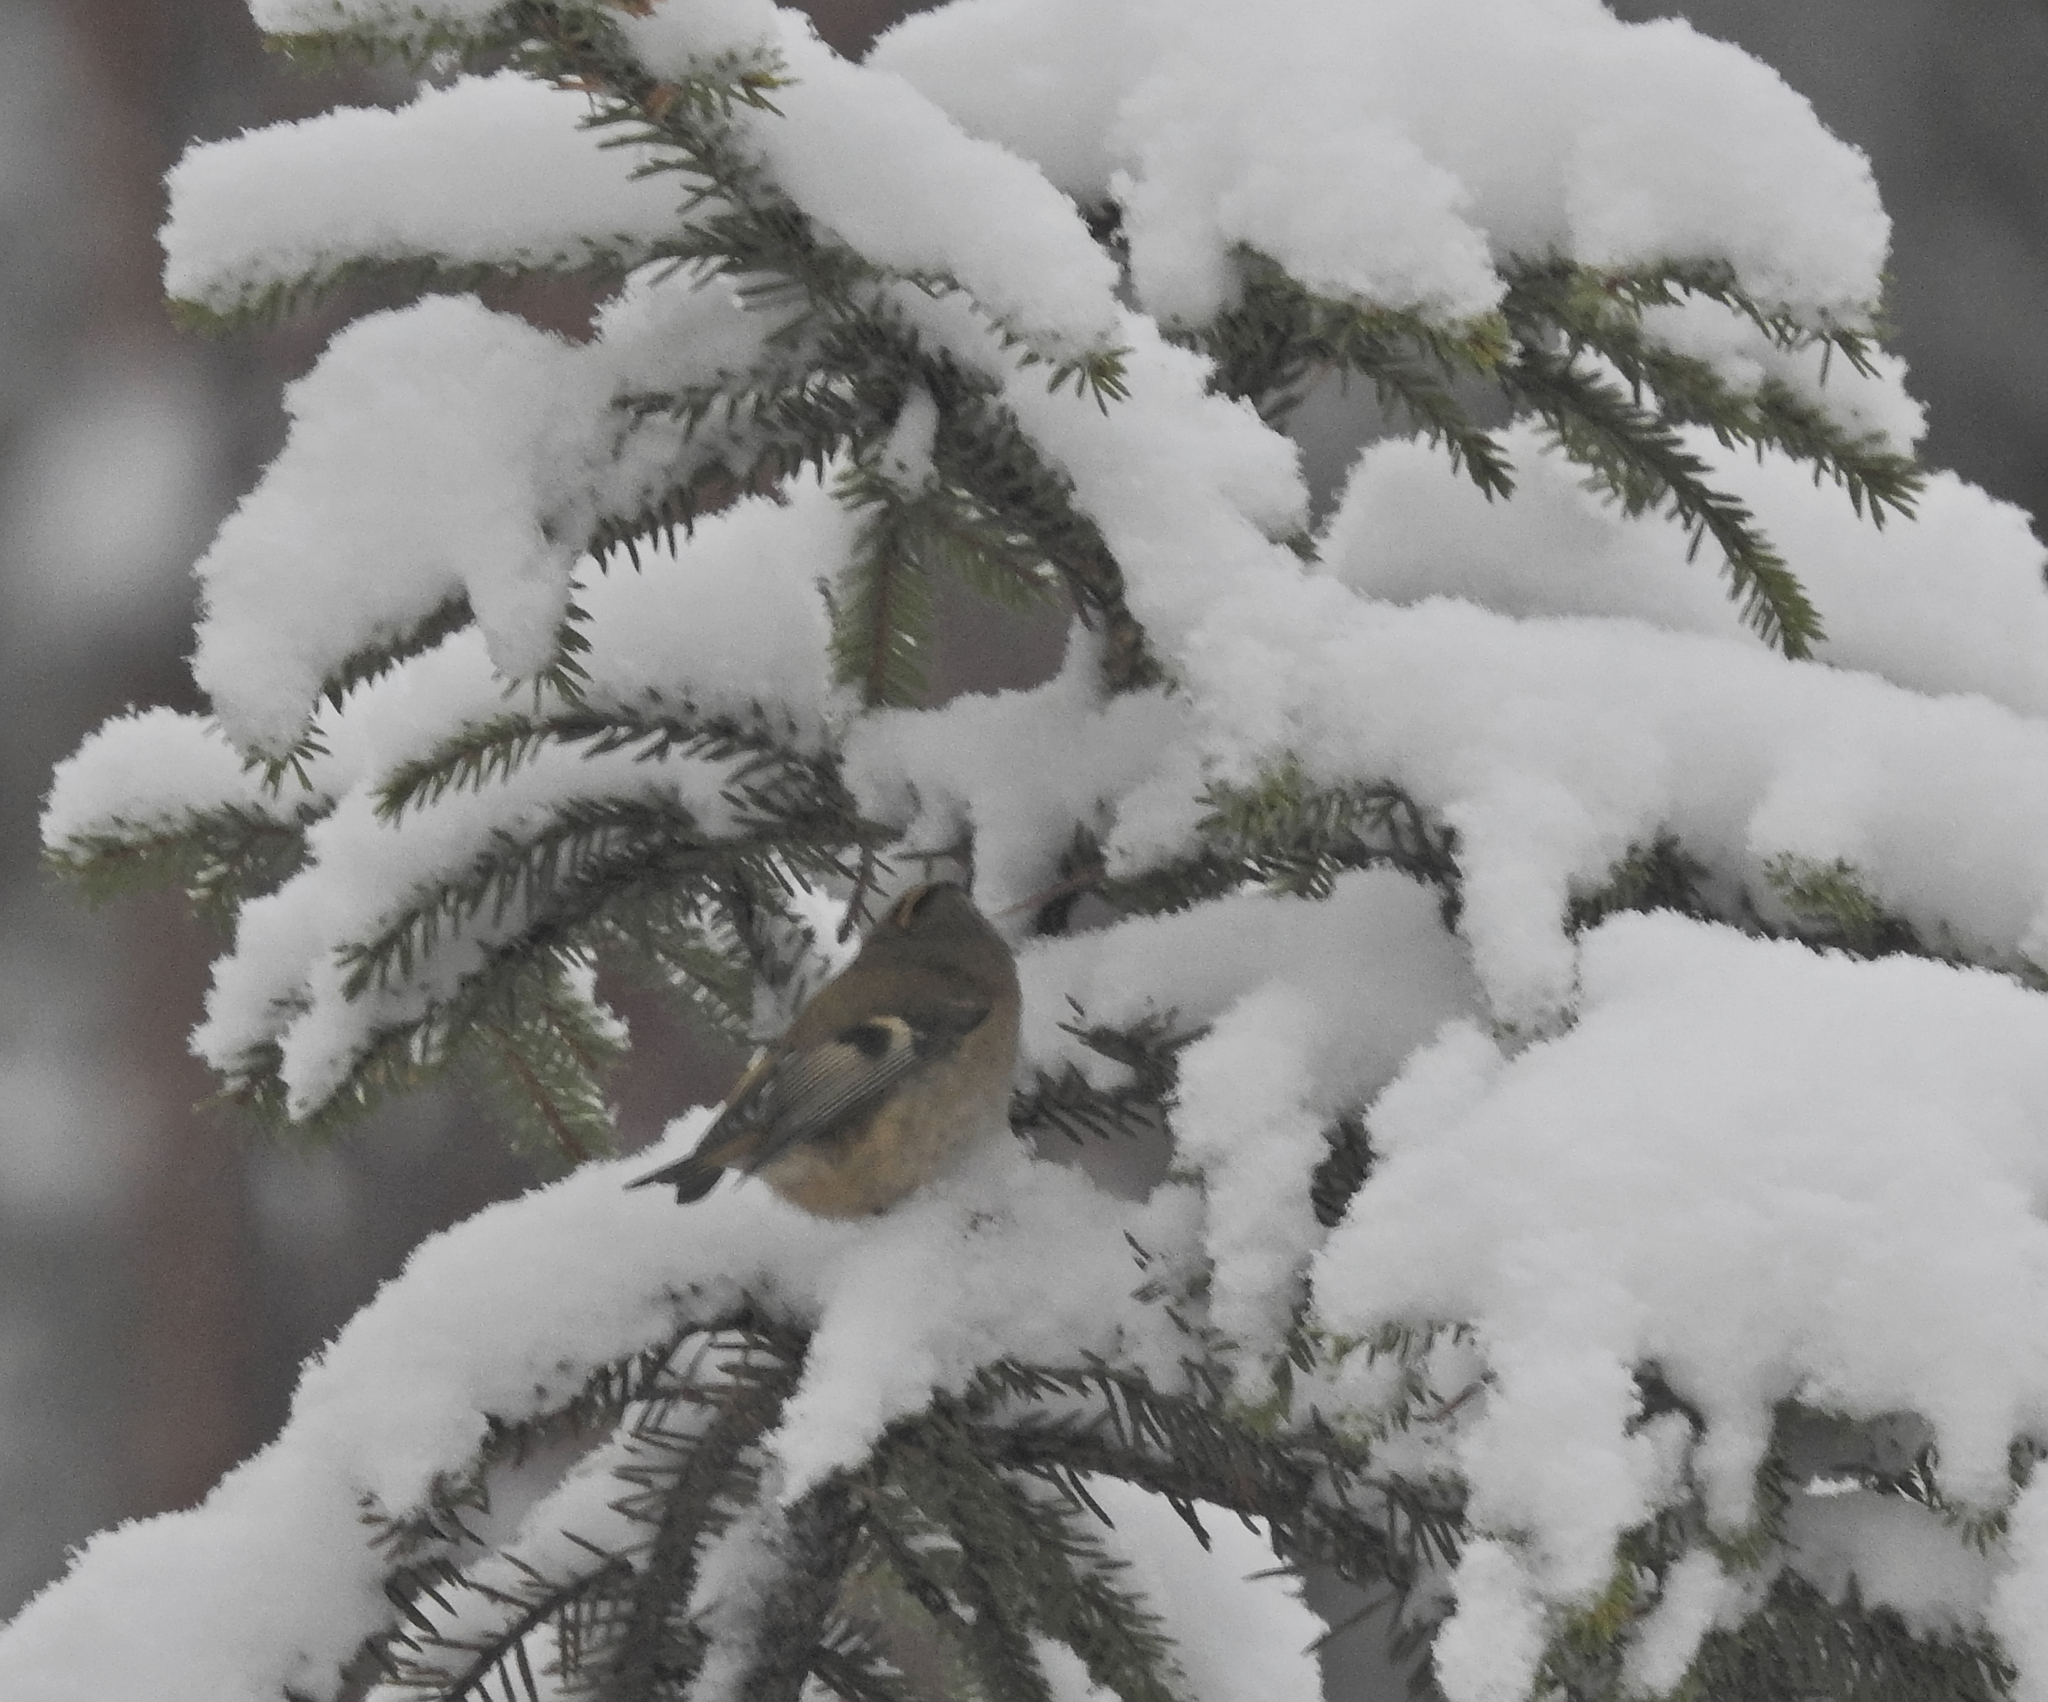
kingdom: Animalia
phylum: Chordata
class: Aves
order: Passeriformes
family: Regulidae
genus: Regulus
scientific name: Regulus regulus
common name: Goldcrest
